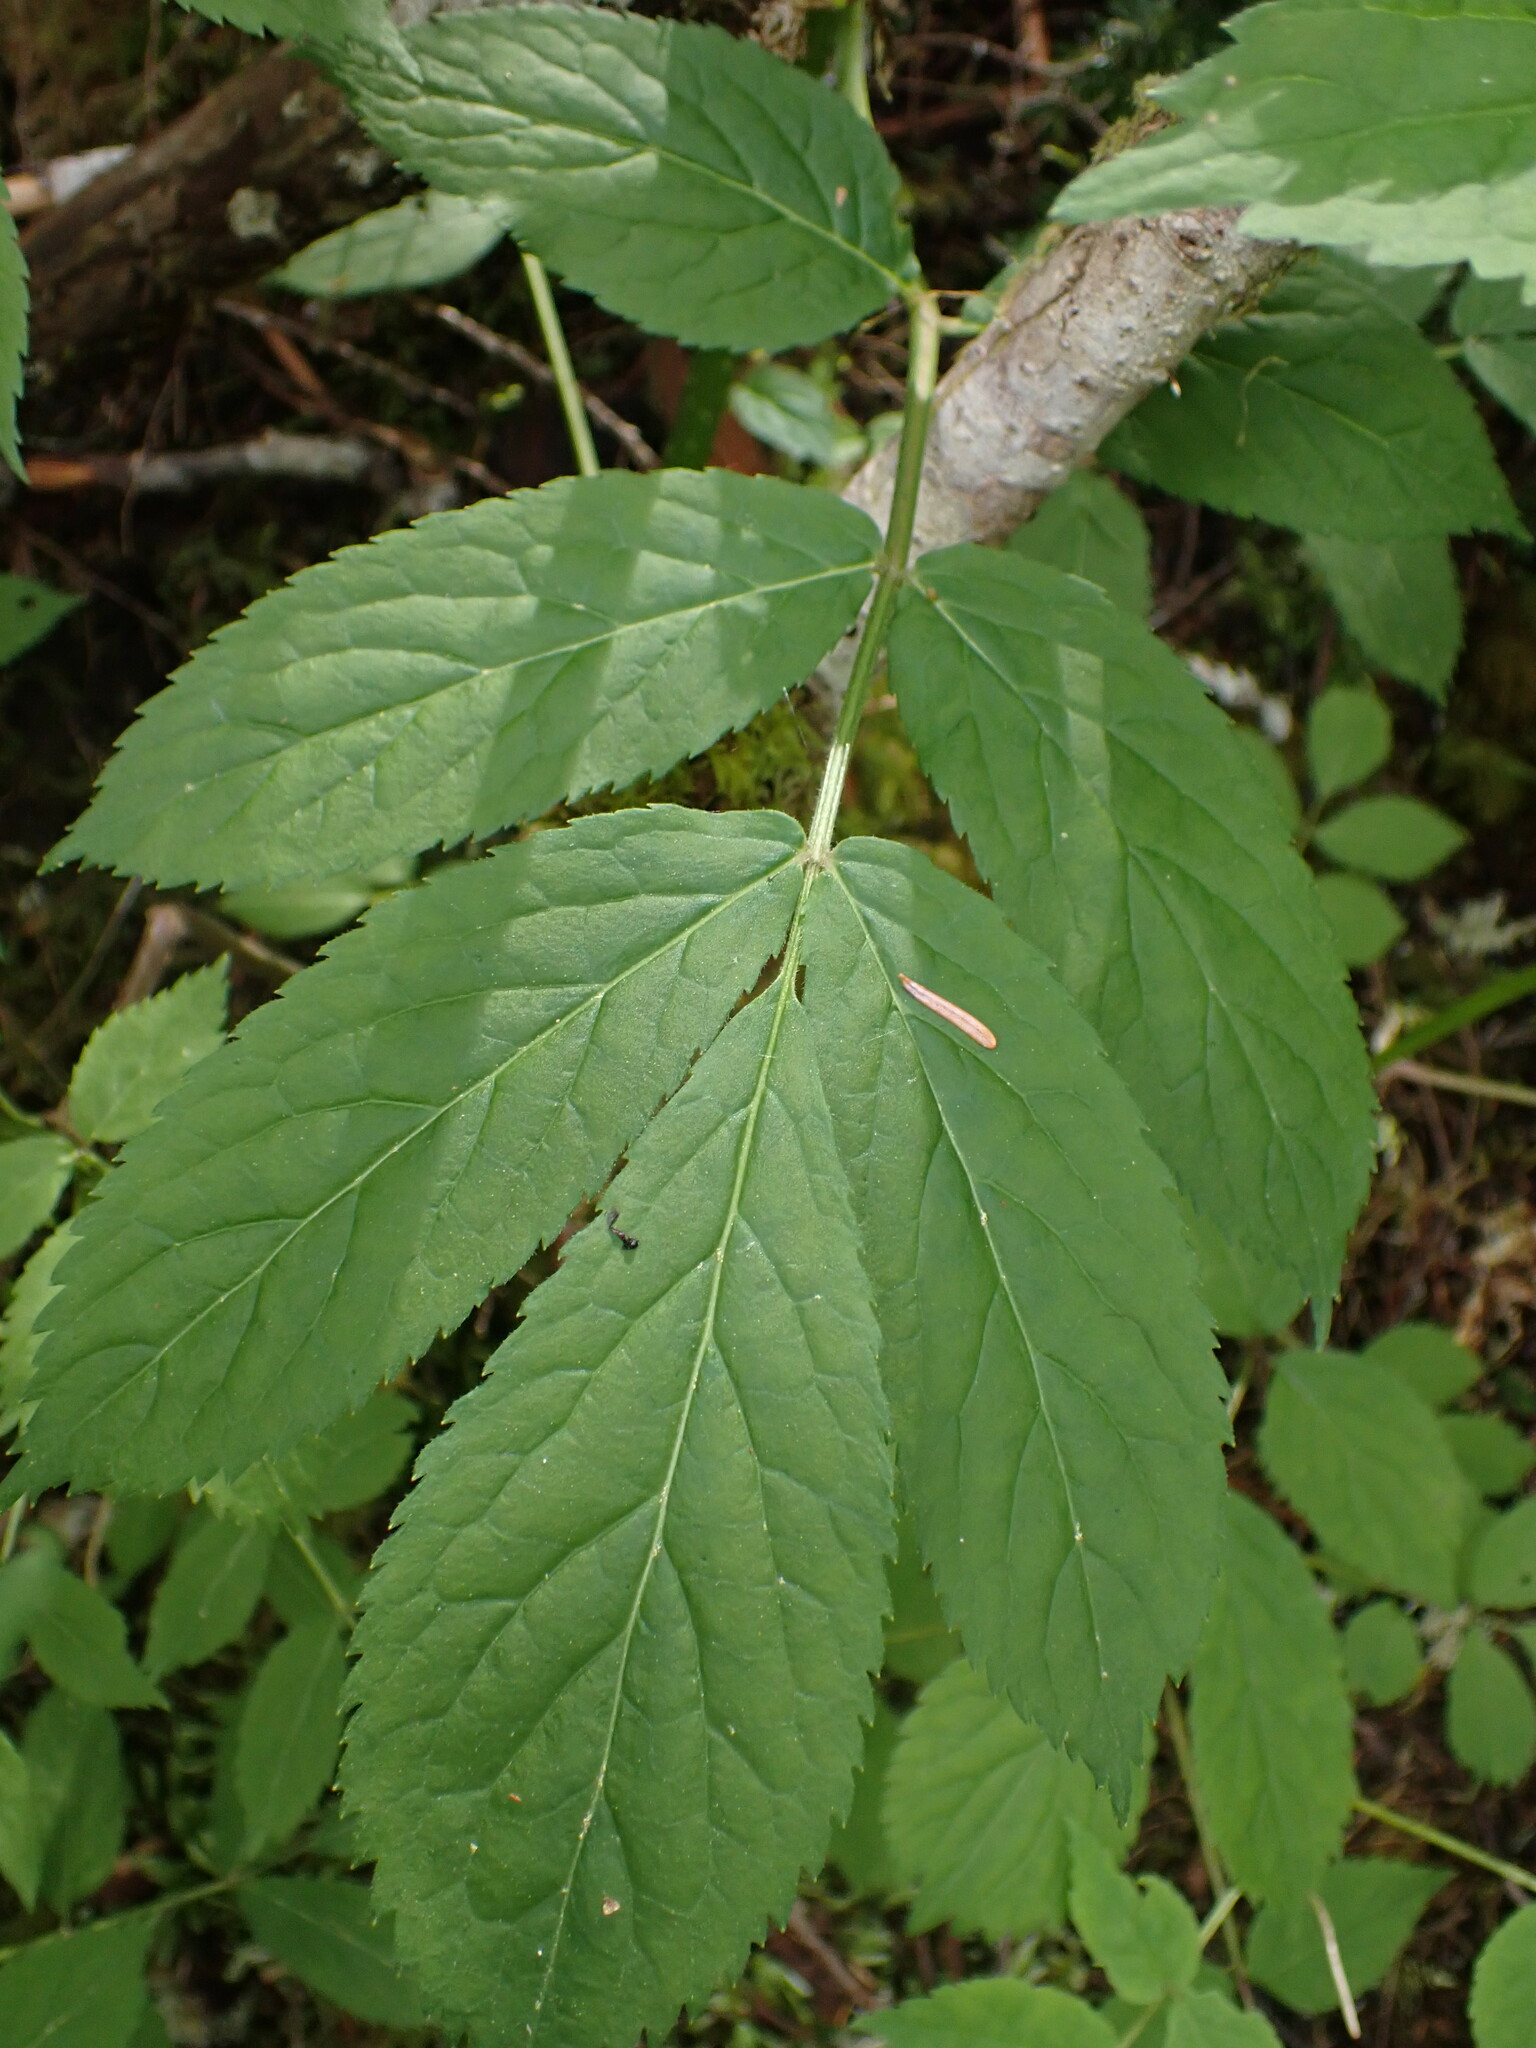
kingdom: Plantae
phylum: Tracheophyta
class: Magnoliopsida
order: Dipsacales
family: Viburnaceae
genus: Sambucus
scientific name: Sambucus racemosa
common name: Red-berried elder
